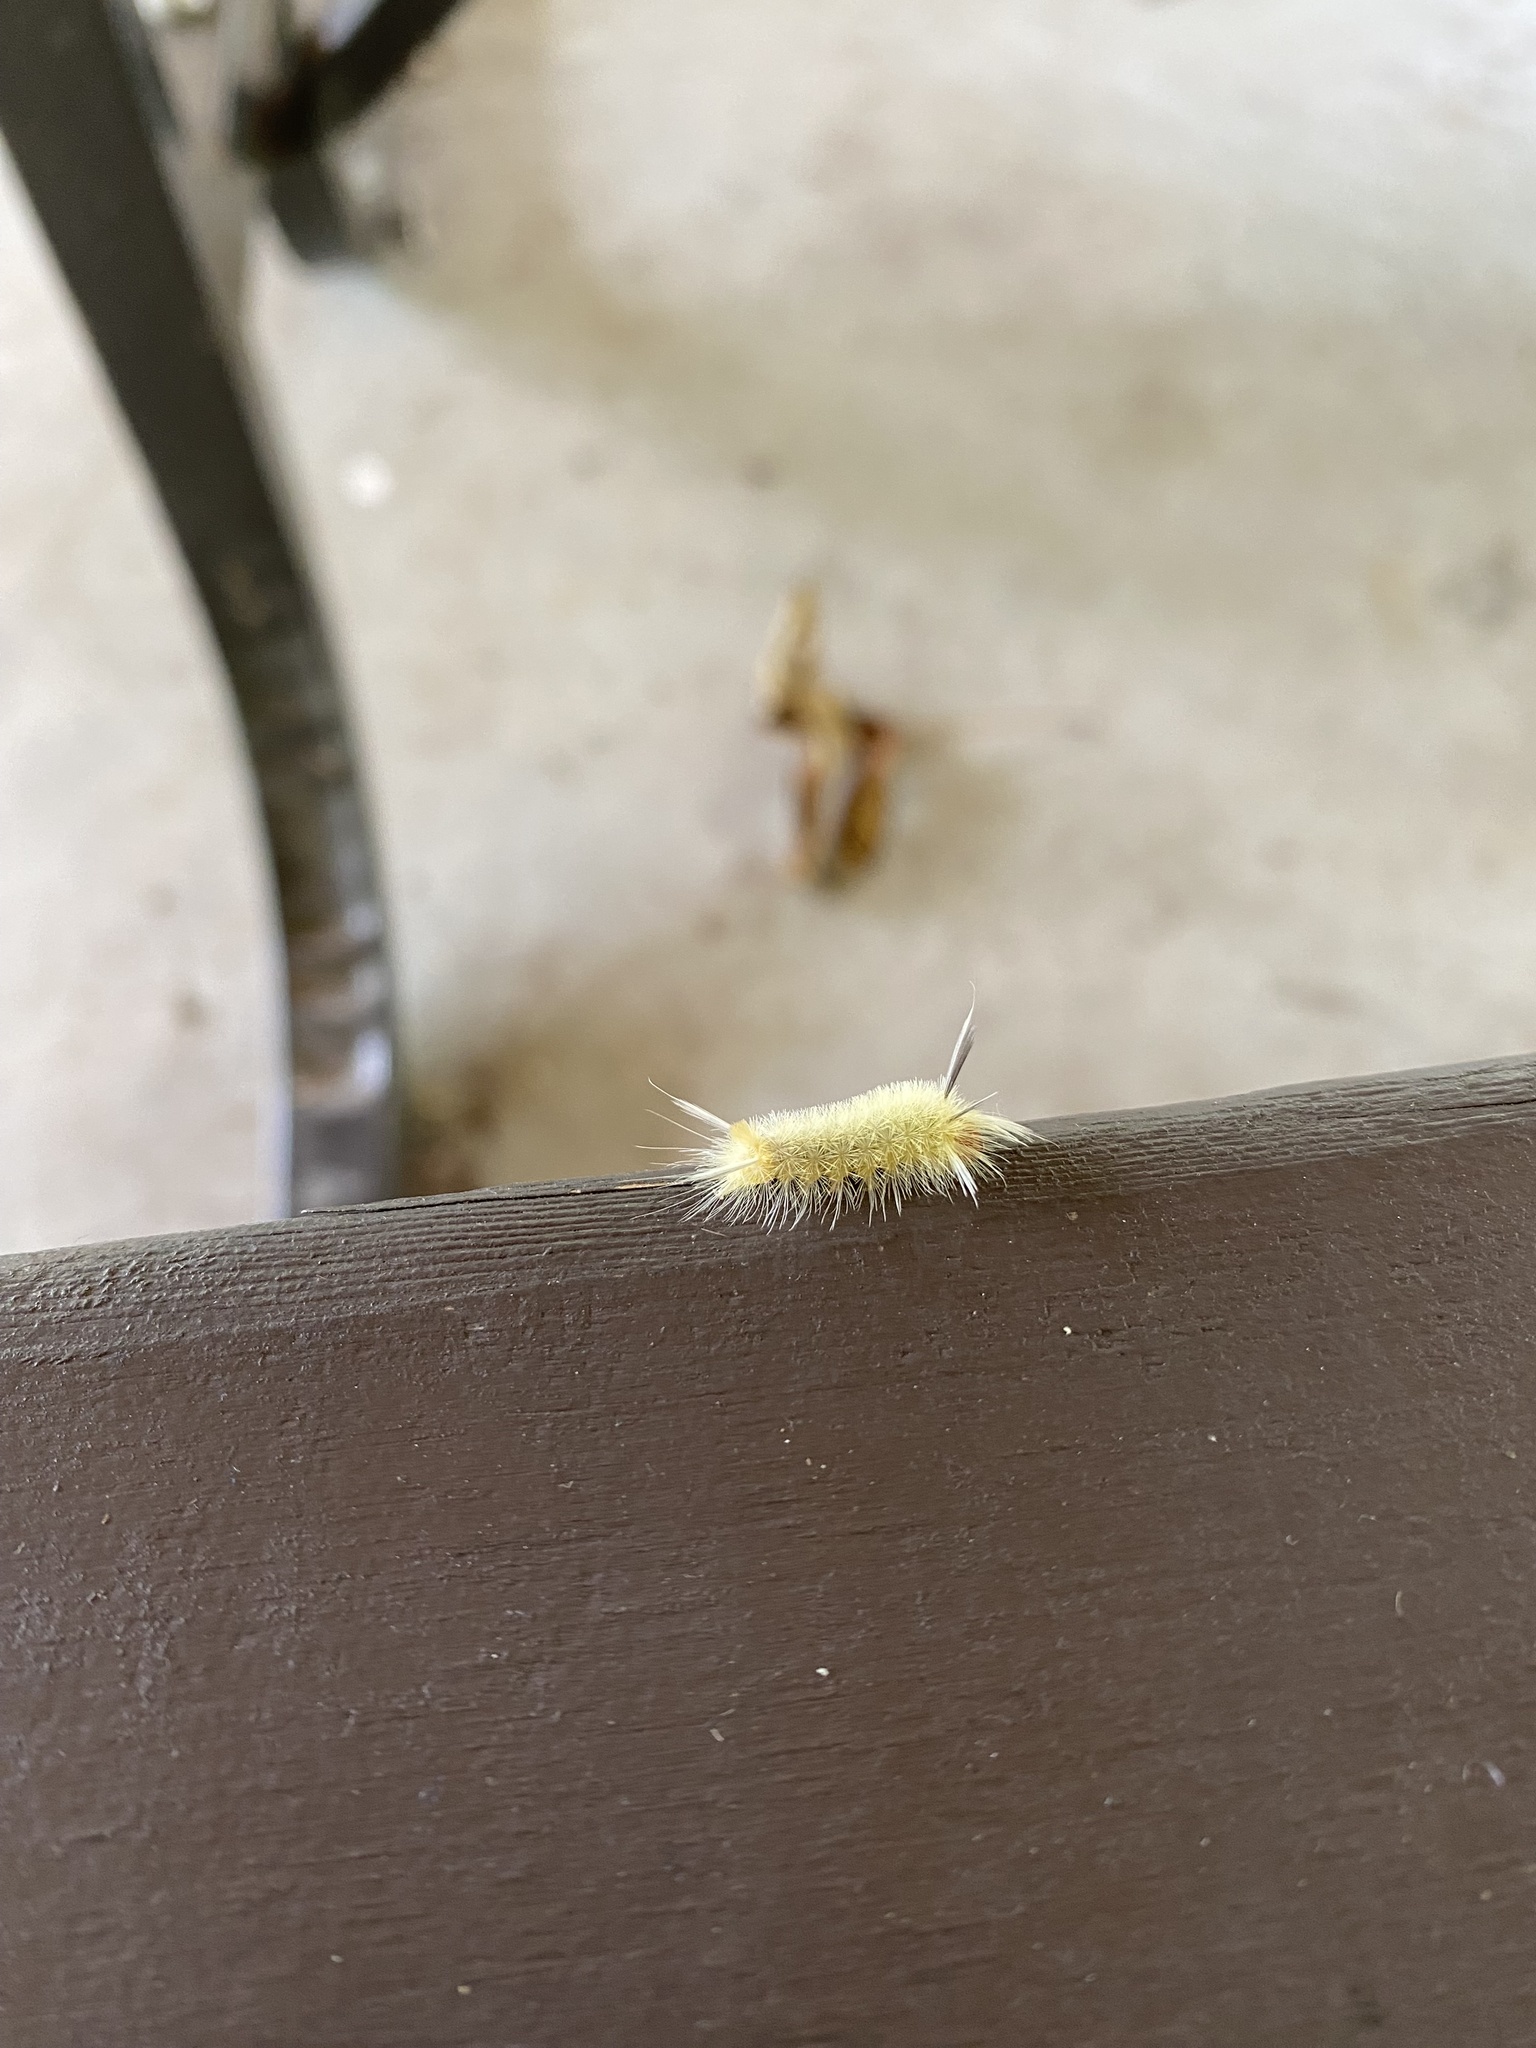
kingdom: Animalia
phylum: Arthropoda
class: Insecta
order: Lepidoptera
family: Erebidae
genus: Halysidota
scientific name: Halysidota tessellaris
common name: Banded tussock moth
